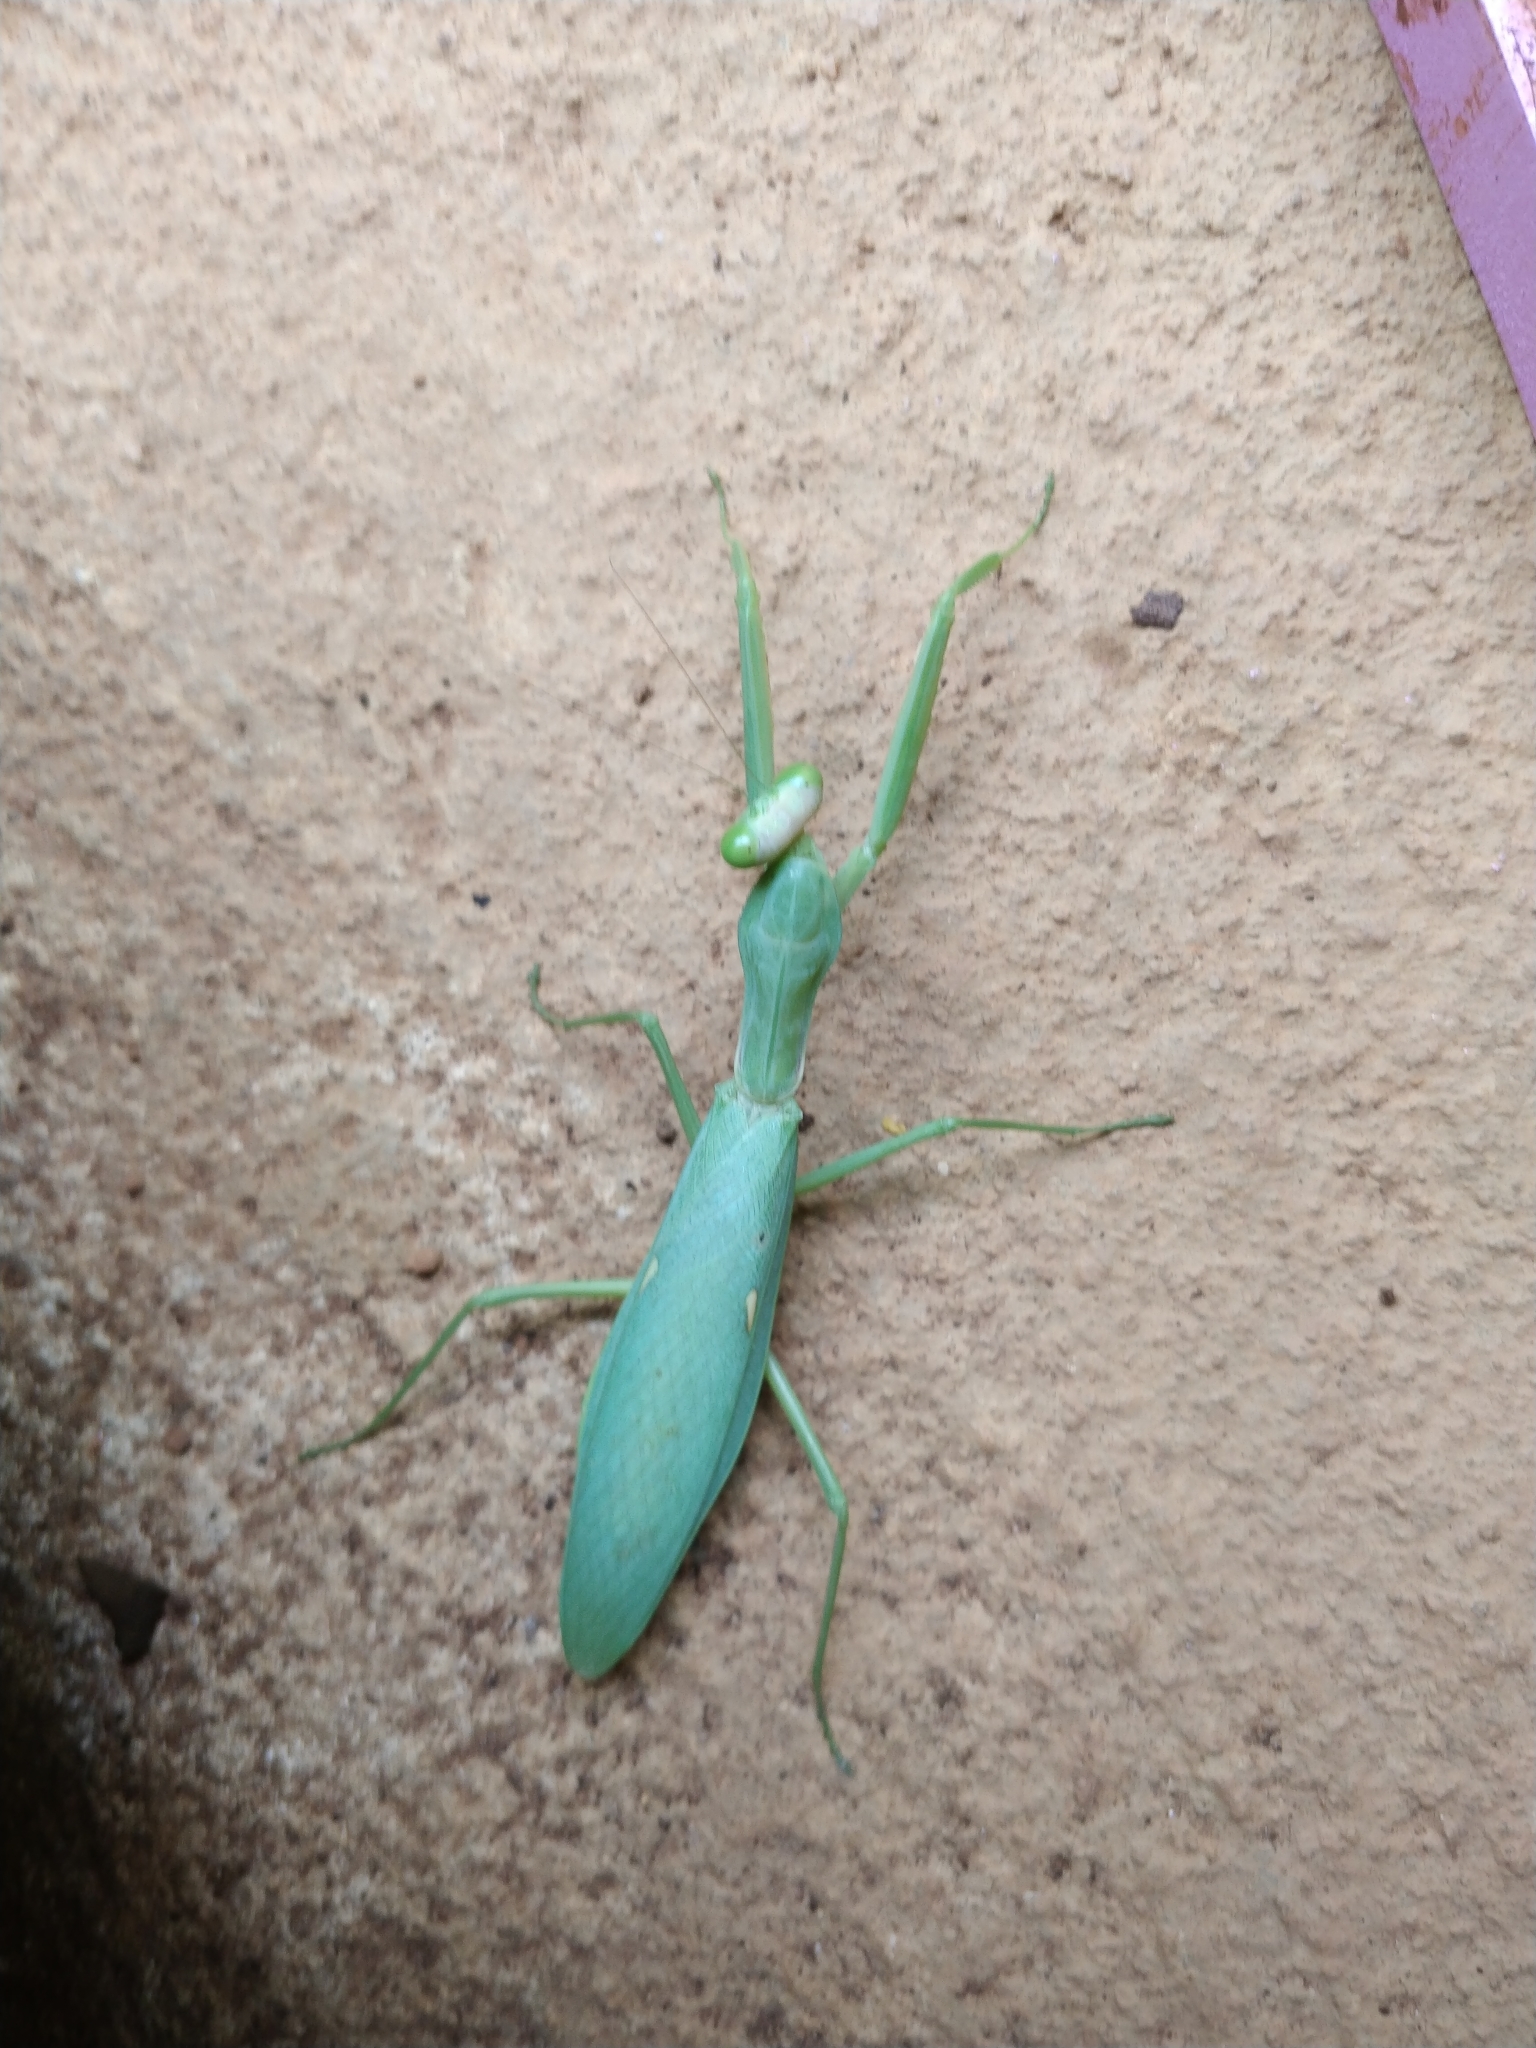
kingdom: Animalia
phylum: Arthropoda
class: Insecta
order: Mantodea
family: Mantidae
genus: Hierodula
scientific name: Hierodula tenuidentata
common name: Giant asian mantis
